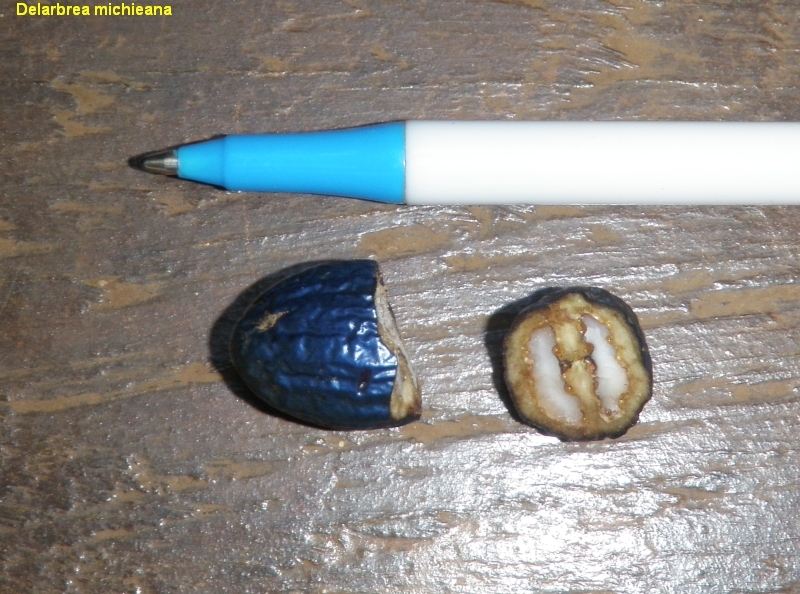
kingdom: Plantae
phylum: Tracheophyta
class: Magnoliopsida
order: Apiales
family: Myodocarpaceae
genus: Delarbrea
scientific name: Delarbrea michieana
